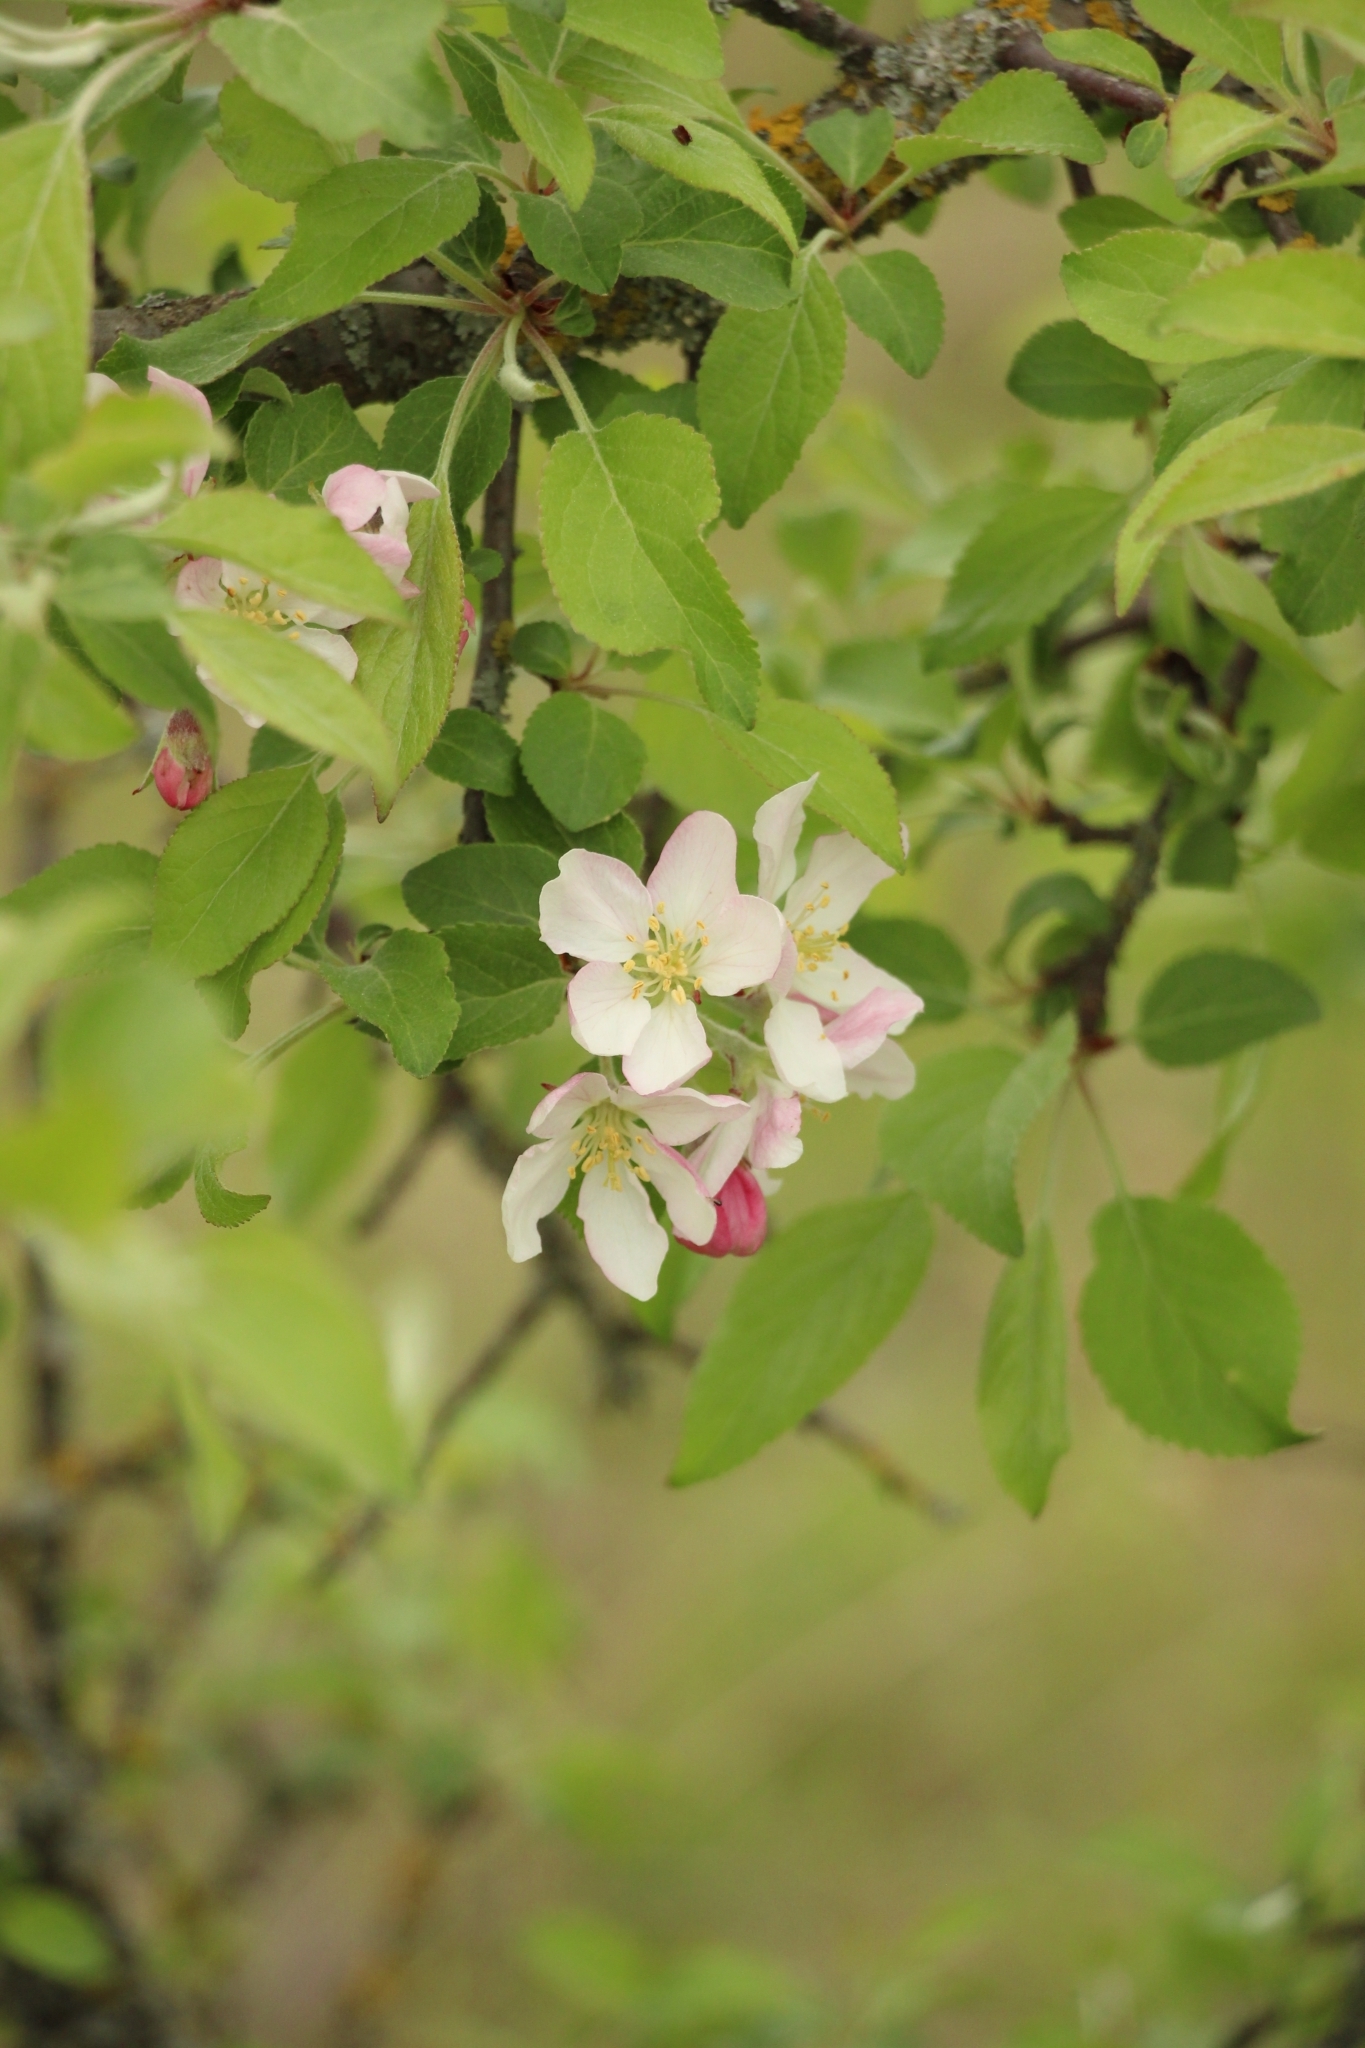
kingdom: Plantae
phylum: Tracheophyta
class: Magnoliopsida
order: Rosales
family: Rosaceae
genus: Malus
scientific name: Malus domestica
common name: Apple
